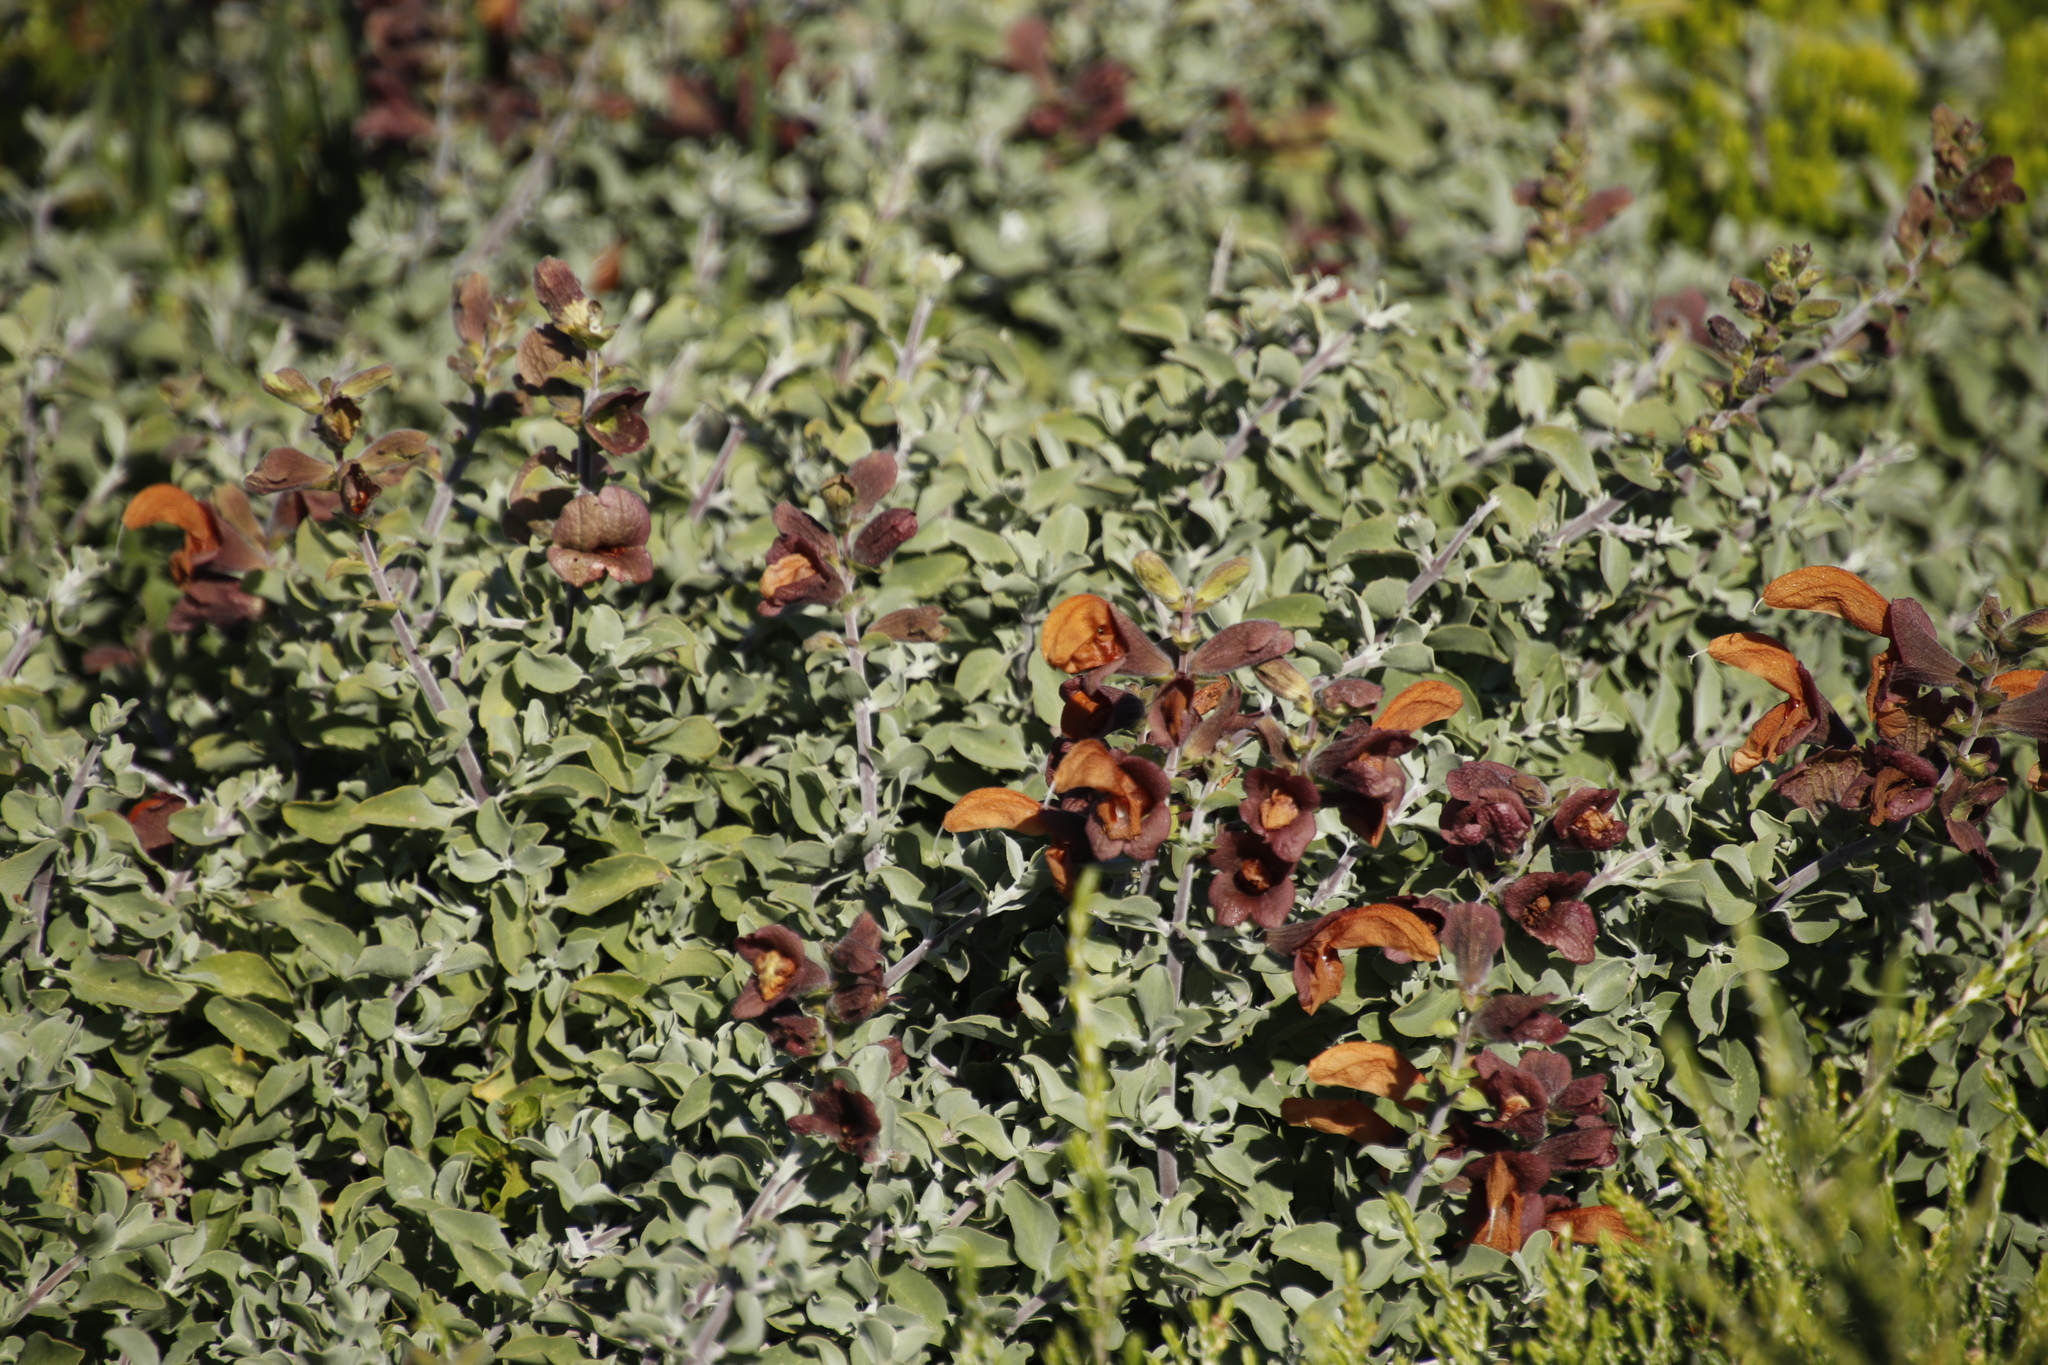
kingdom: Plantae
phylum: Tracheophyta
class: Magnoliopsida
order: Lamiales
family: Lamiaceae
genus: Salvia
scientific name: Salvia aurea
